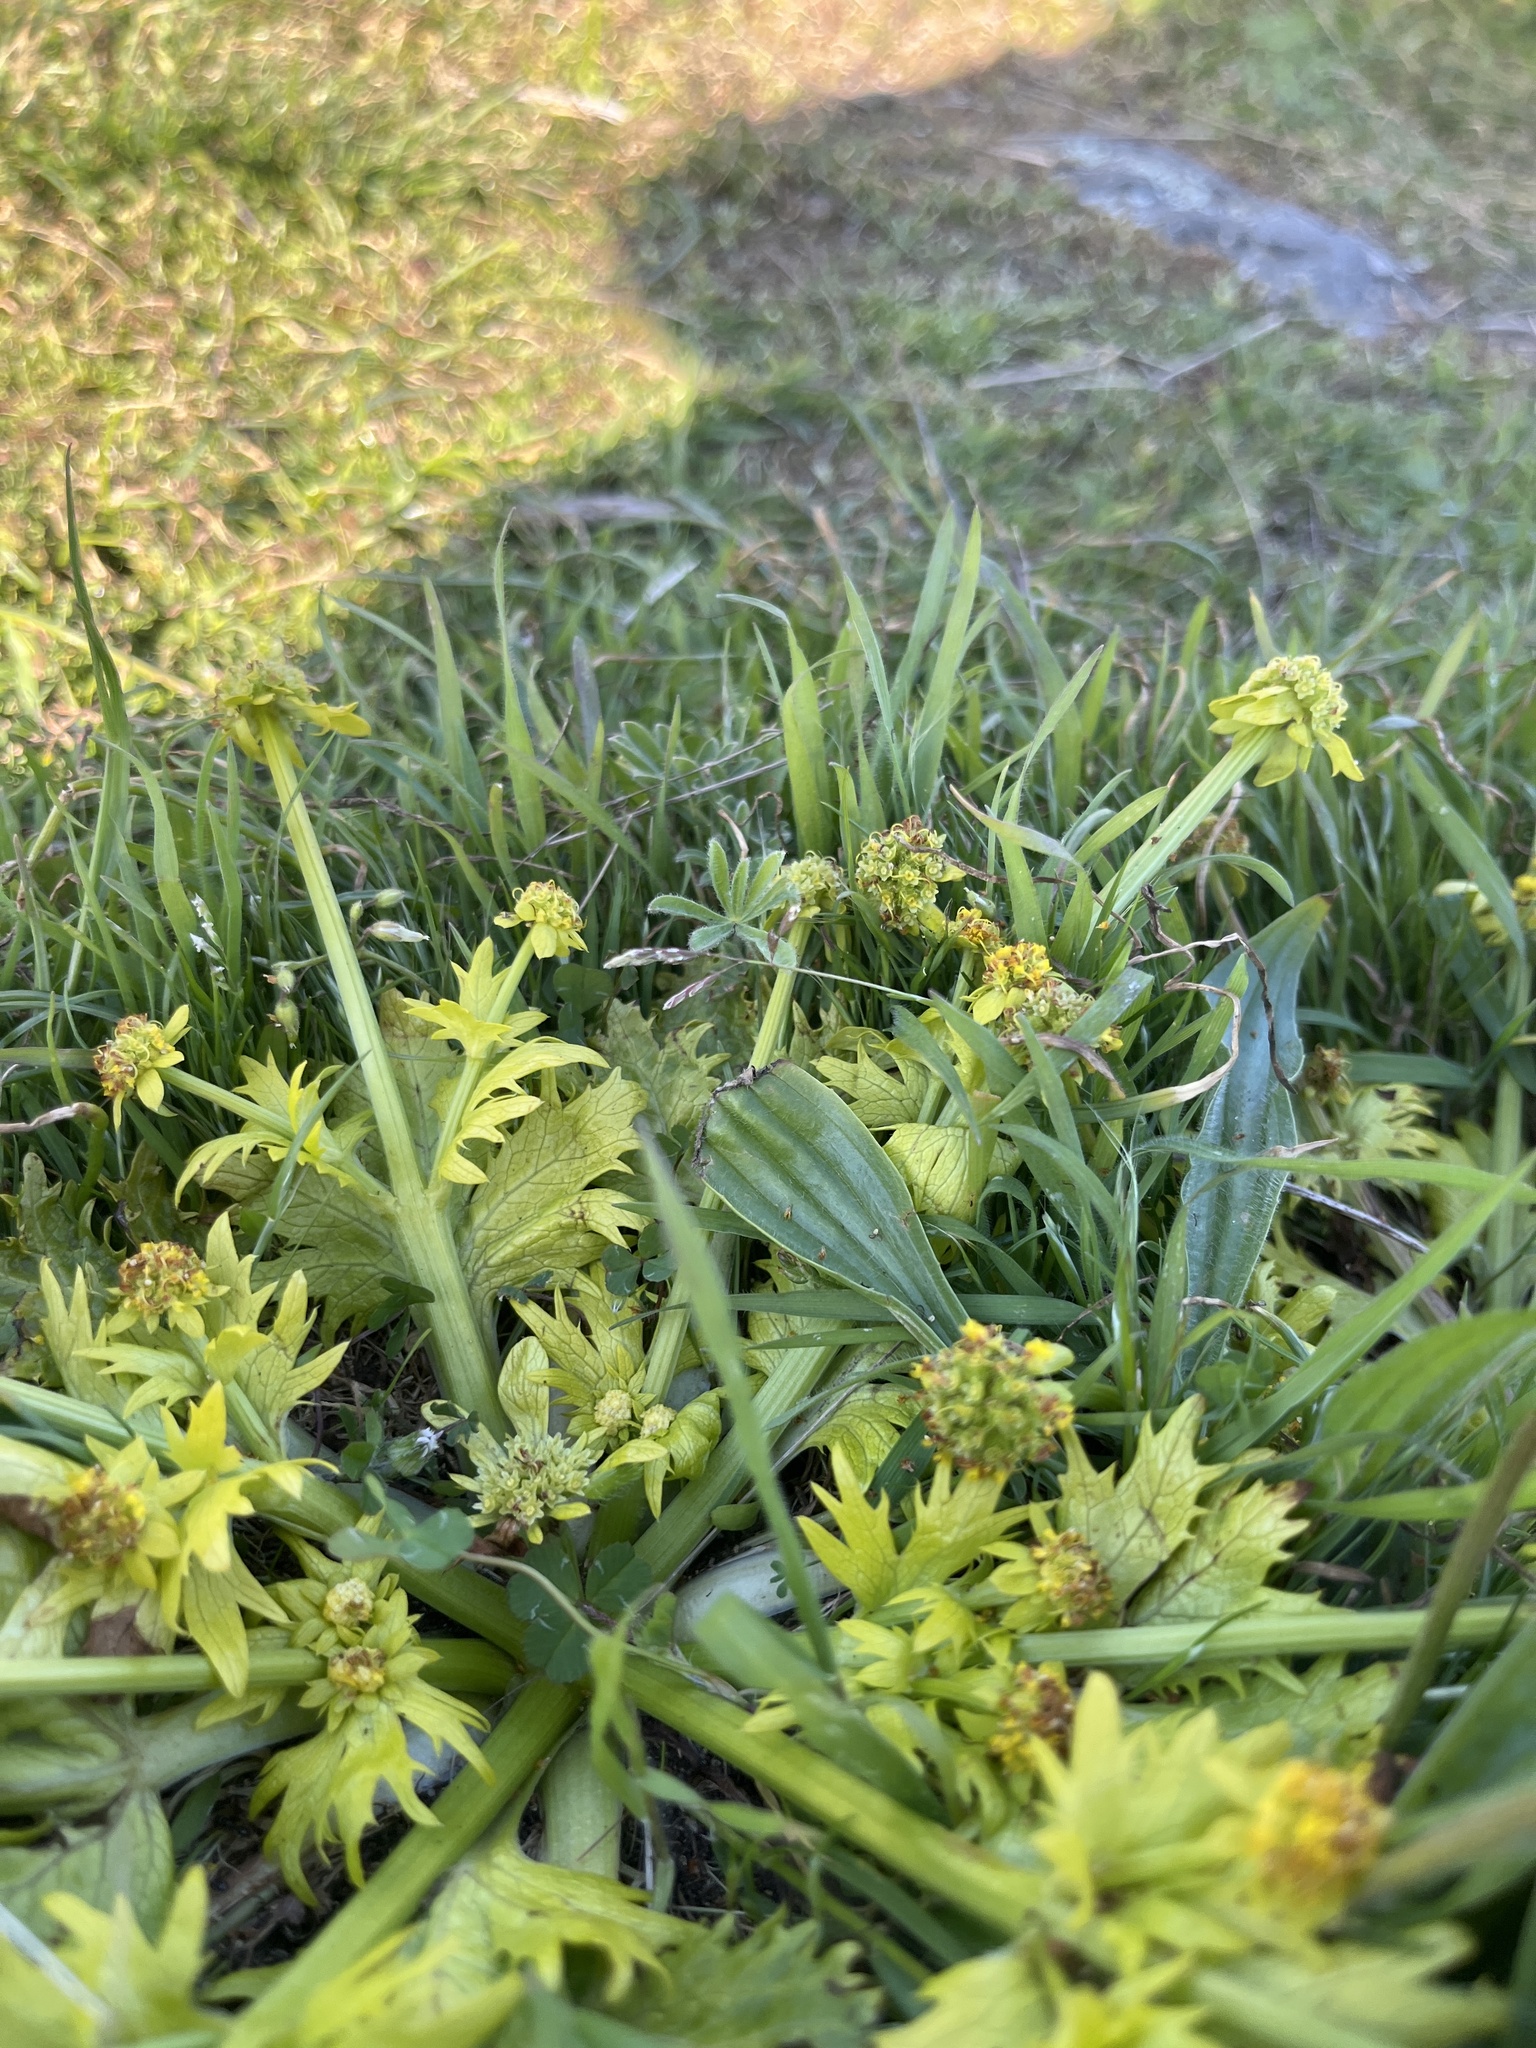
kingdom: Plantae
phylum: Tracheophyta
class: Magnoliopsida
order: Apiales
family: Apiaceae
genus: Sanicula
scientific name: Sanicula arctopoides
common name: Footsteps-of-spring
